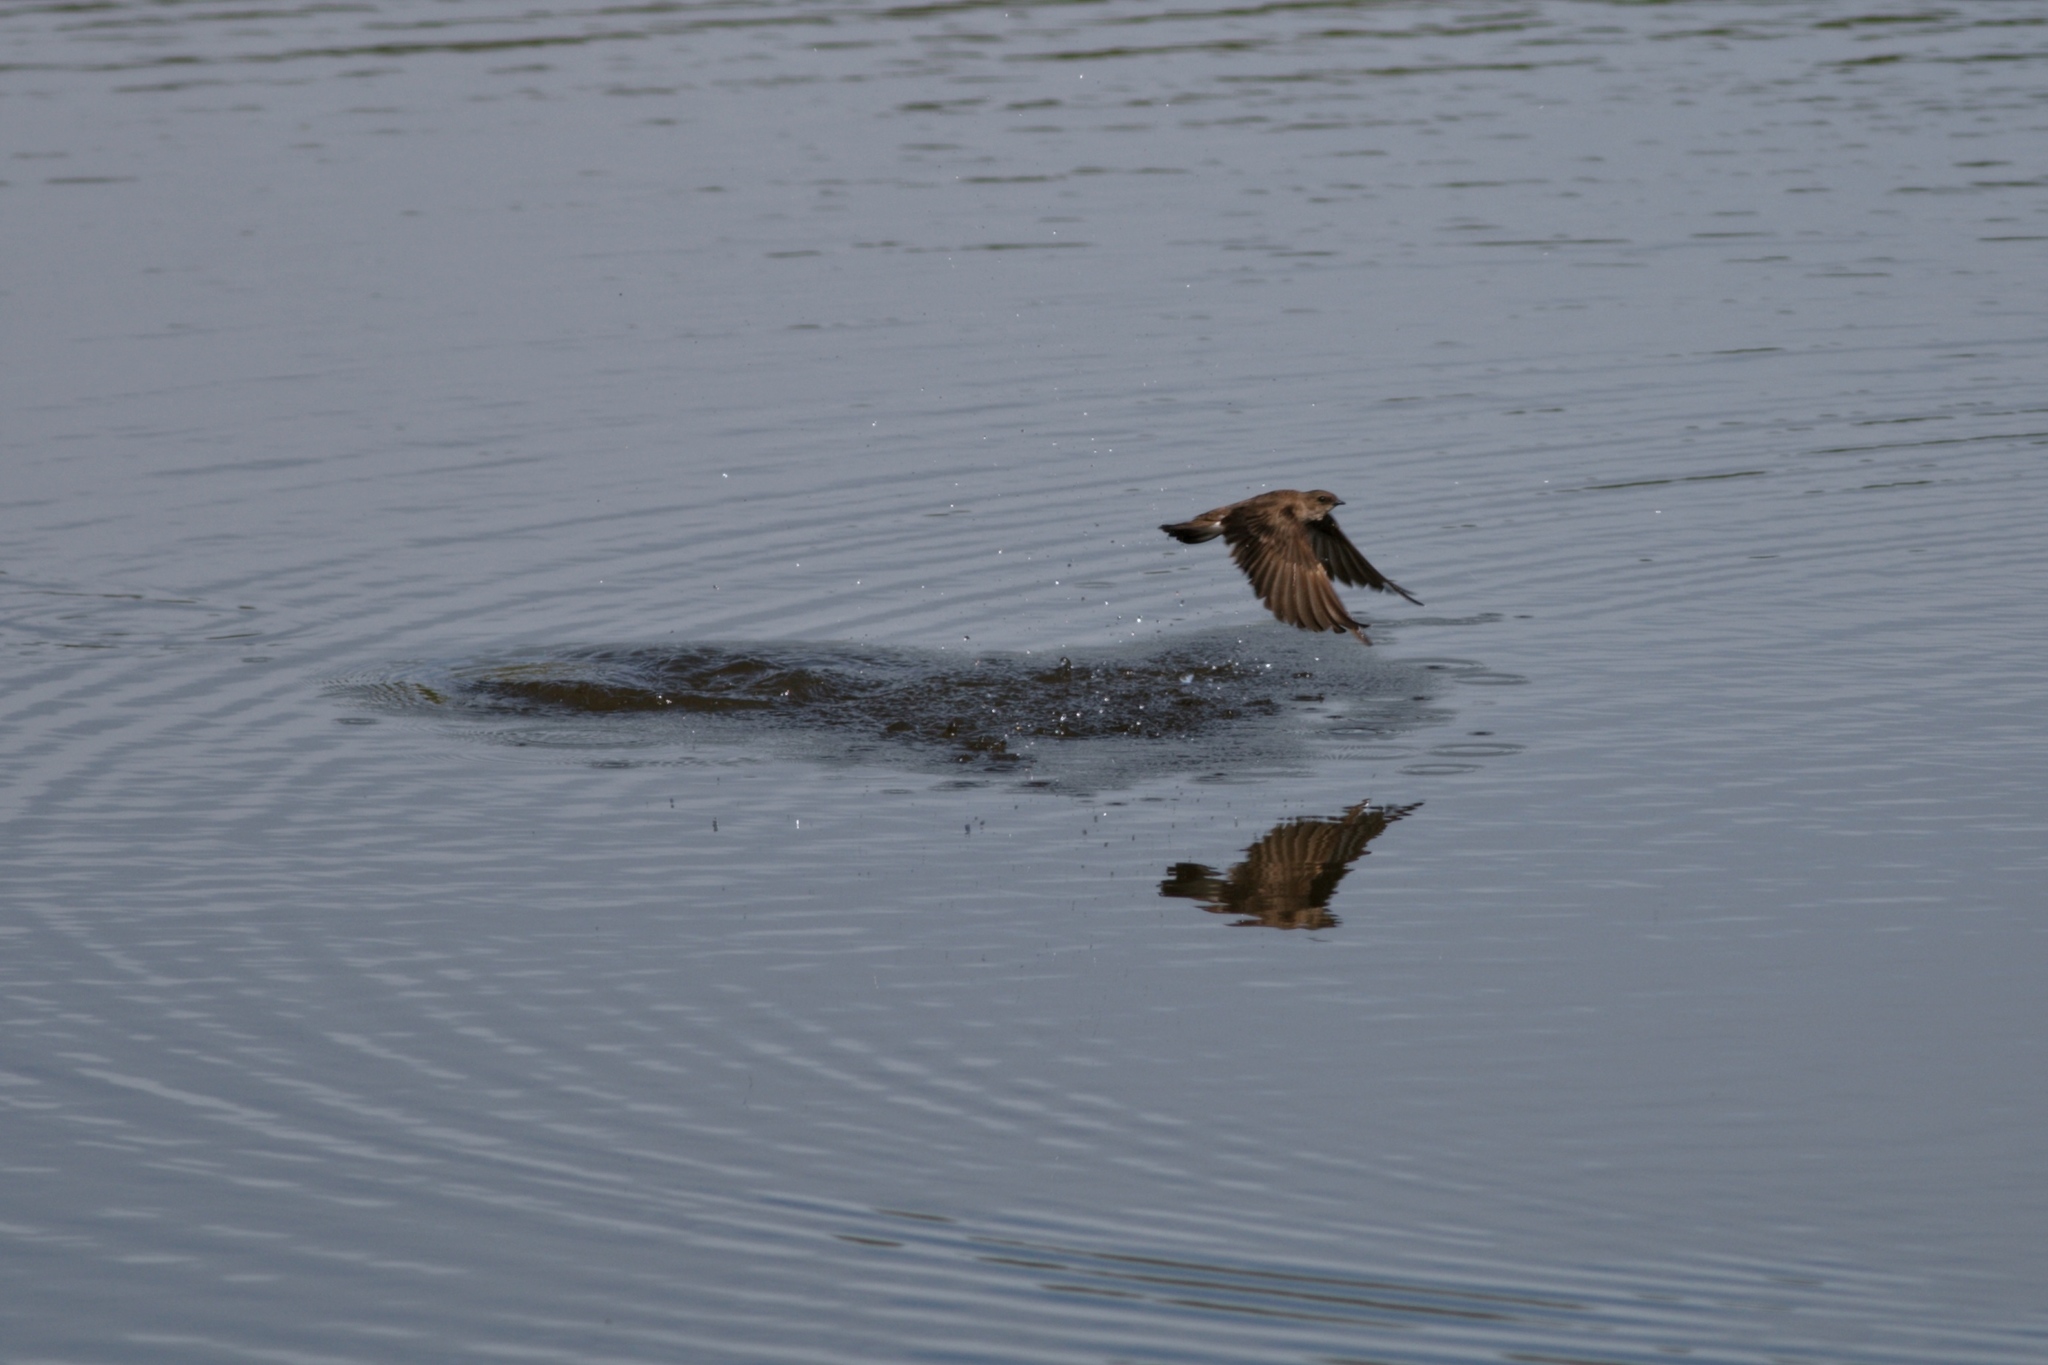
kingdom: Animalia
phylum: Chordata
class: Aves
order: Passeriformes
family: Hirundinidae
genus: Stelgidopteryx
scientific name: Stelgidopteryx serripennis
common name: Northern rough-winged swallow
